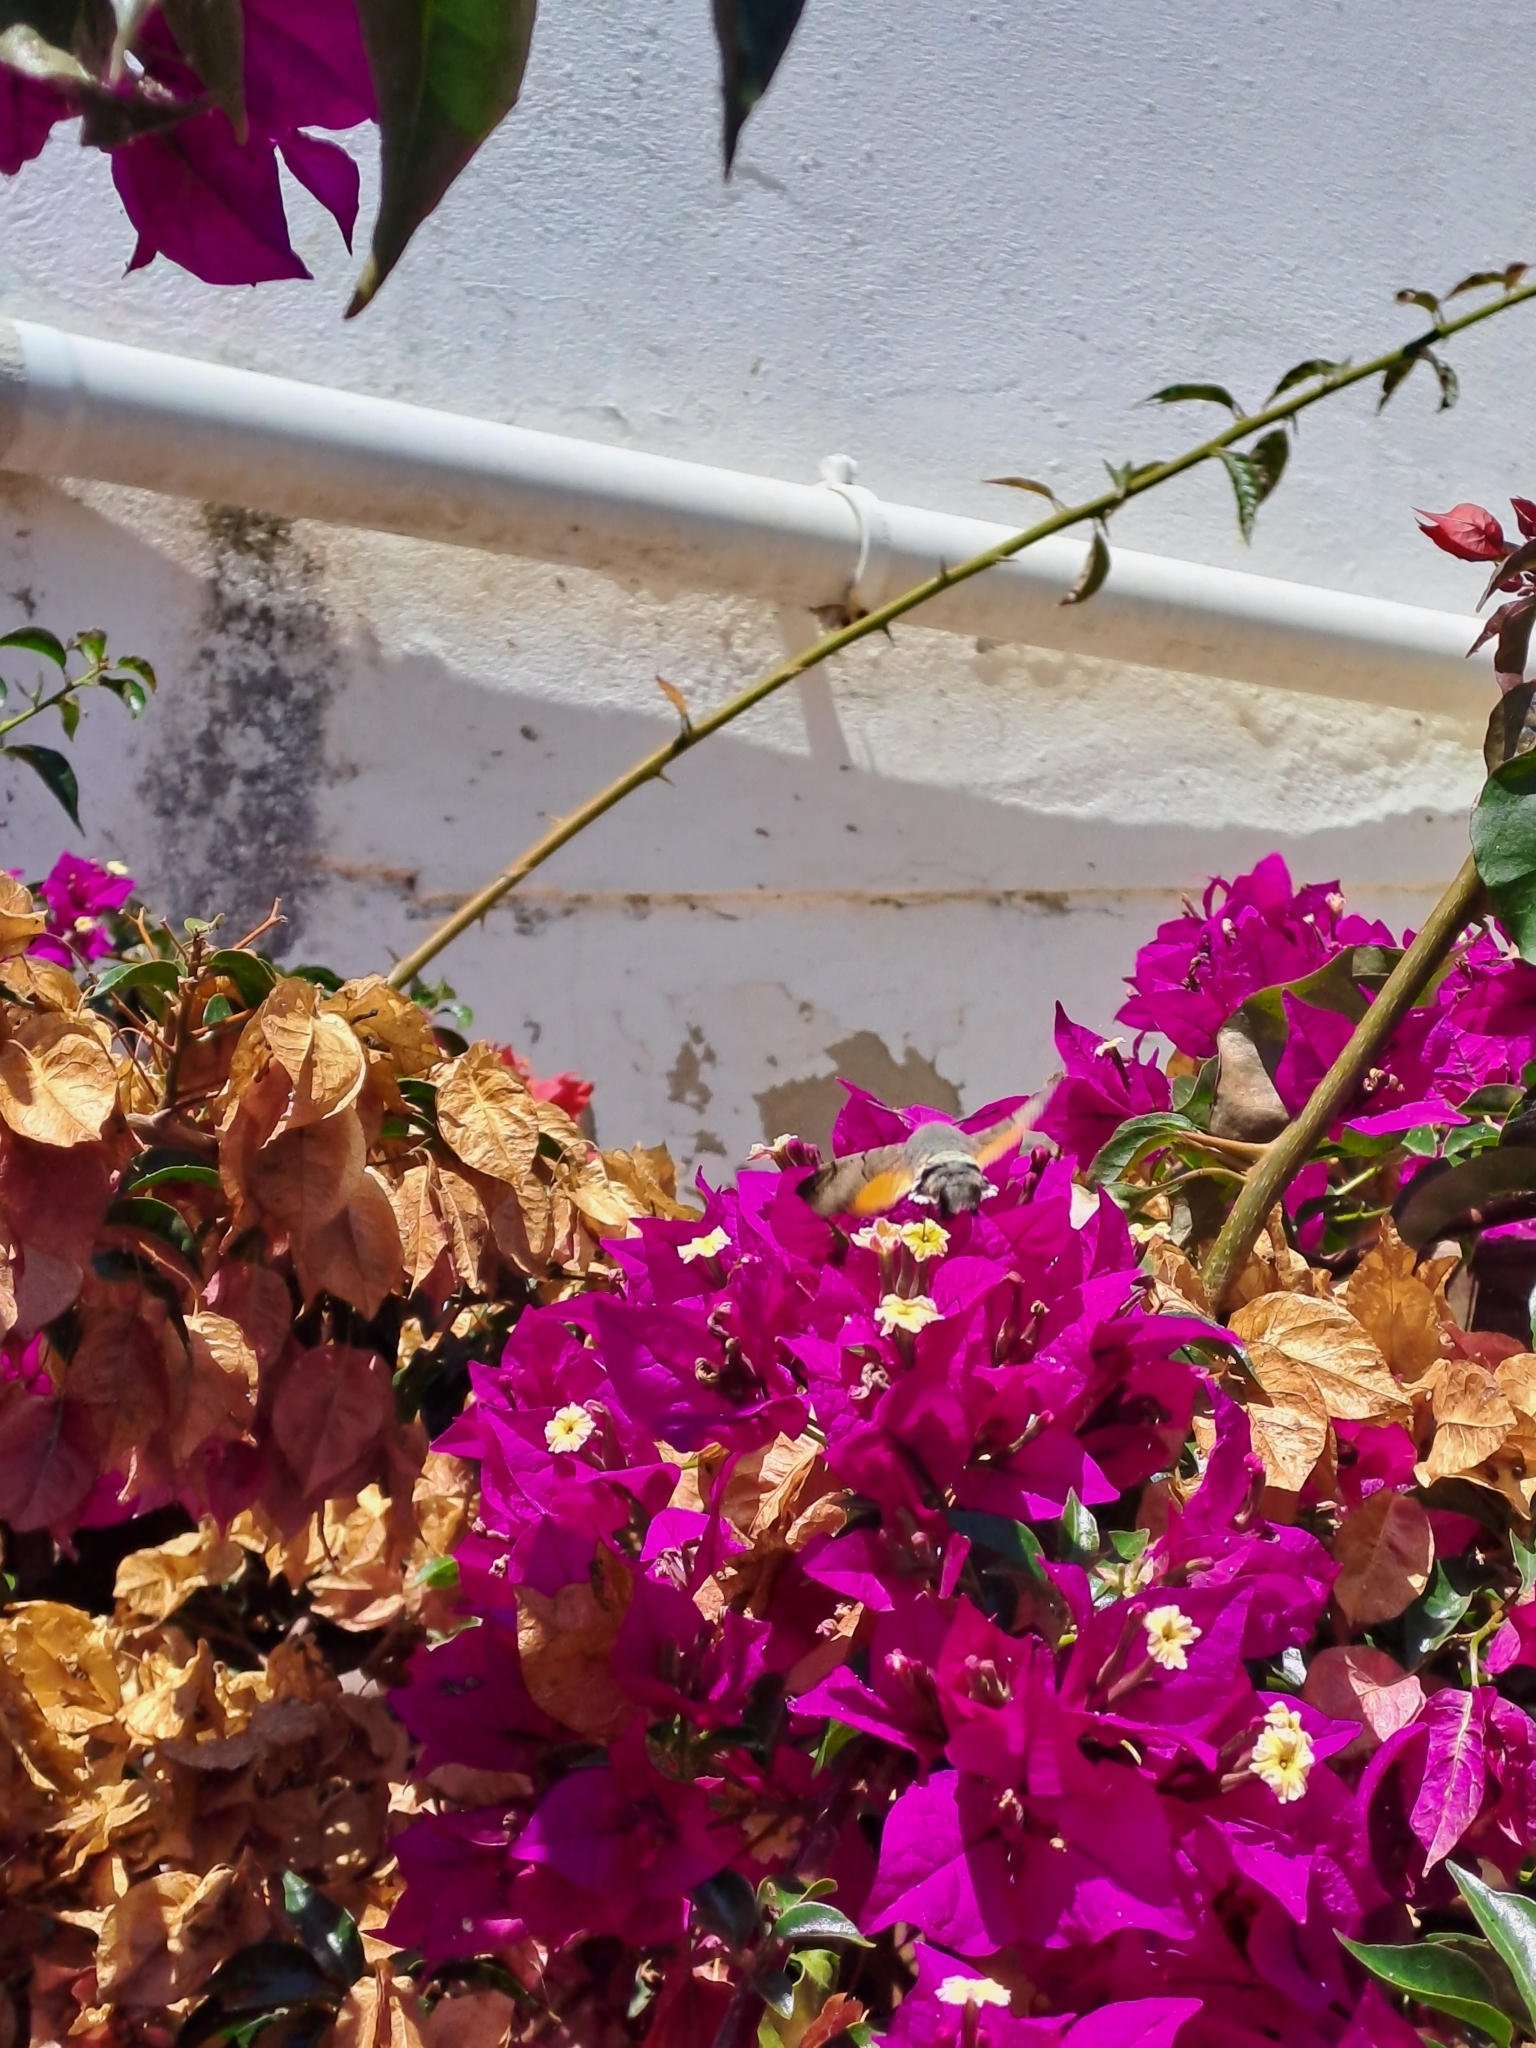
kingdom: Animalia
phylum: Arthropoda
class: Insecta
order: Lepidoptera
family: Sphingidae
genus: Macroglossum
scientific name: Macroglossum stellatarum
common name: Humming-bird hawk-moth
